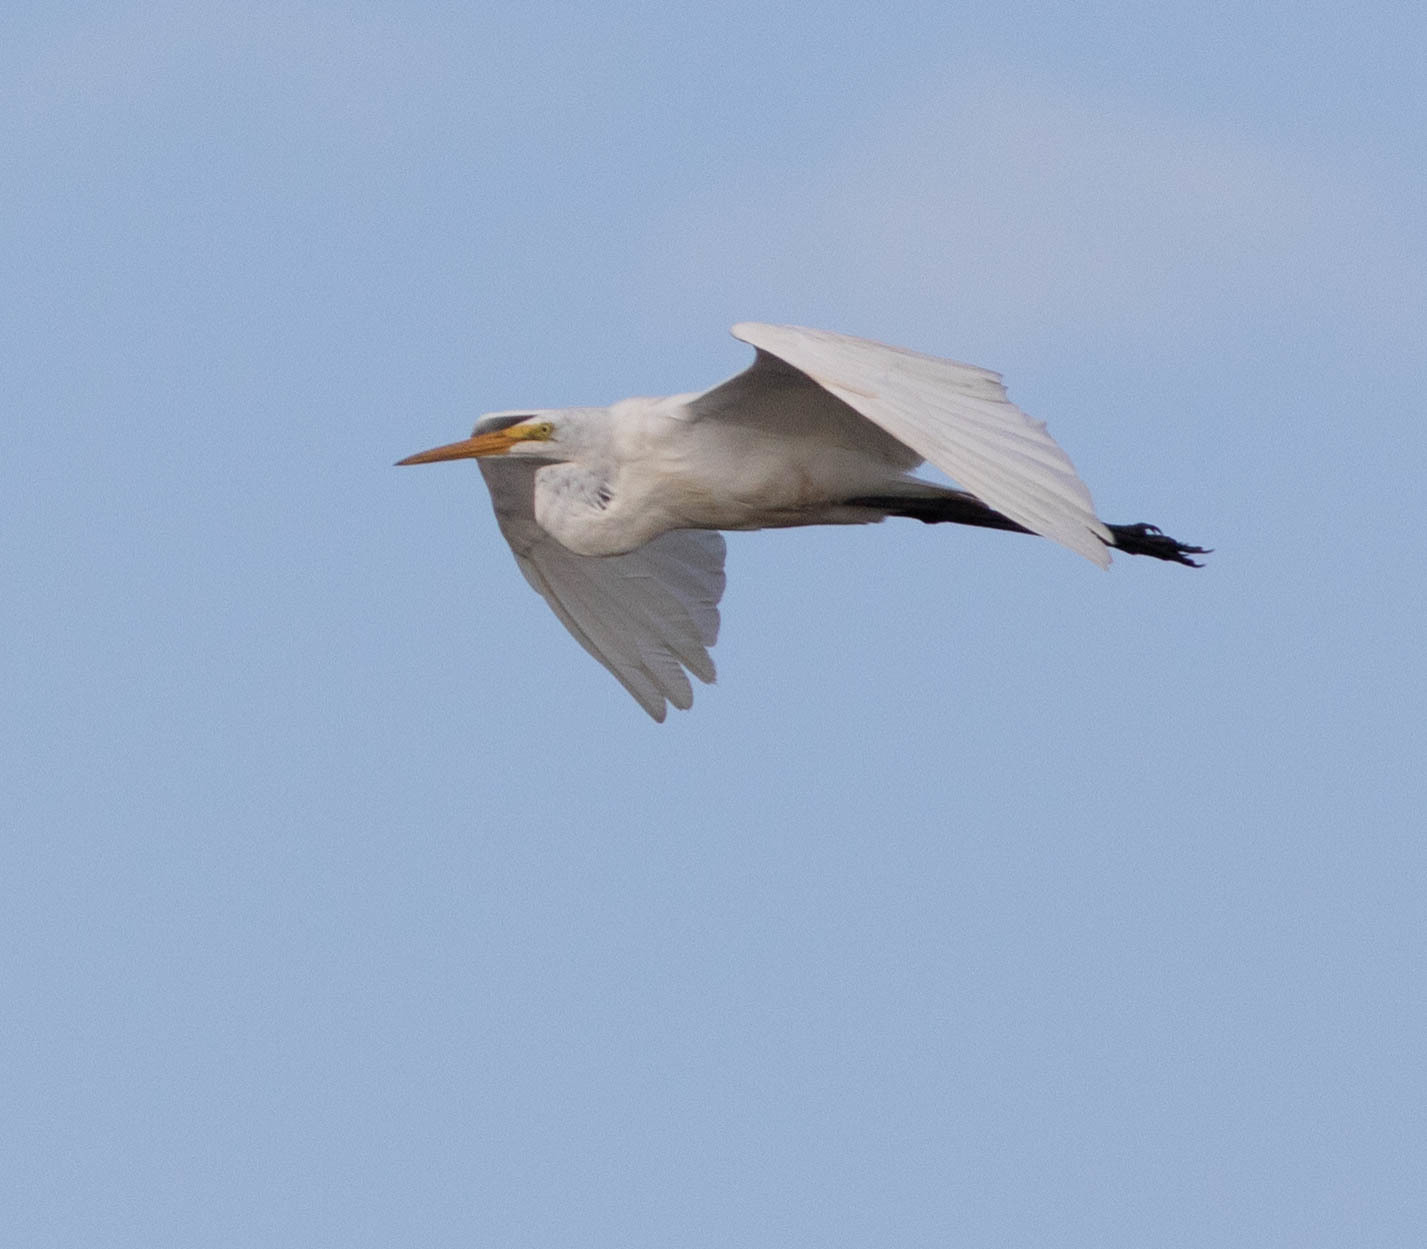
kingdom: Animalia
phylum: Chordata
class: Aves
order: Pelecaniformes
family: Ardeidae
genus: Ardea
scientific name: Ardea alba
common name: Great egret
